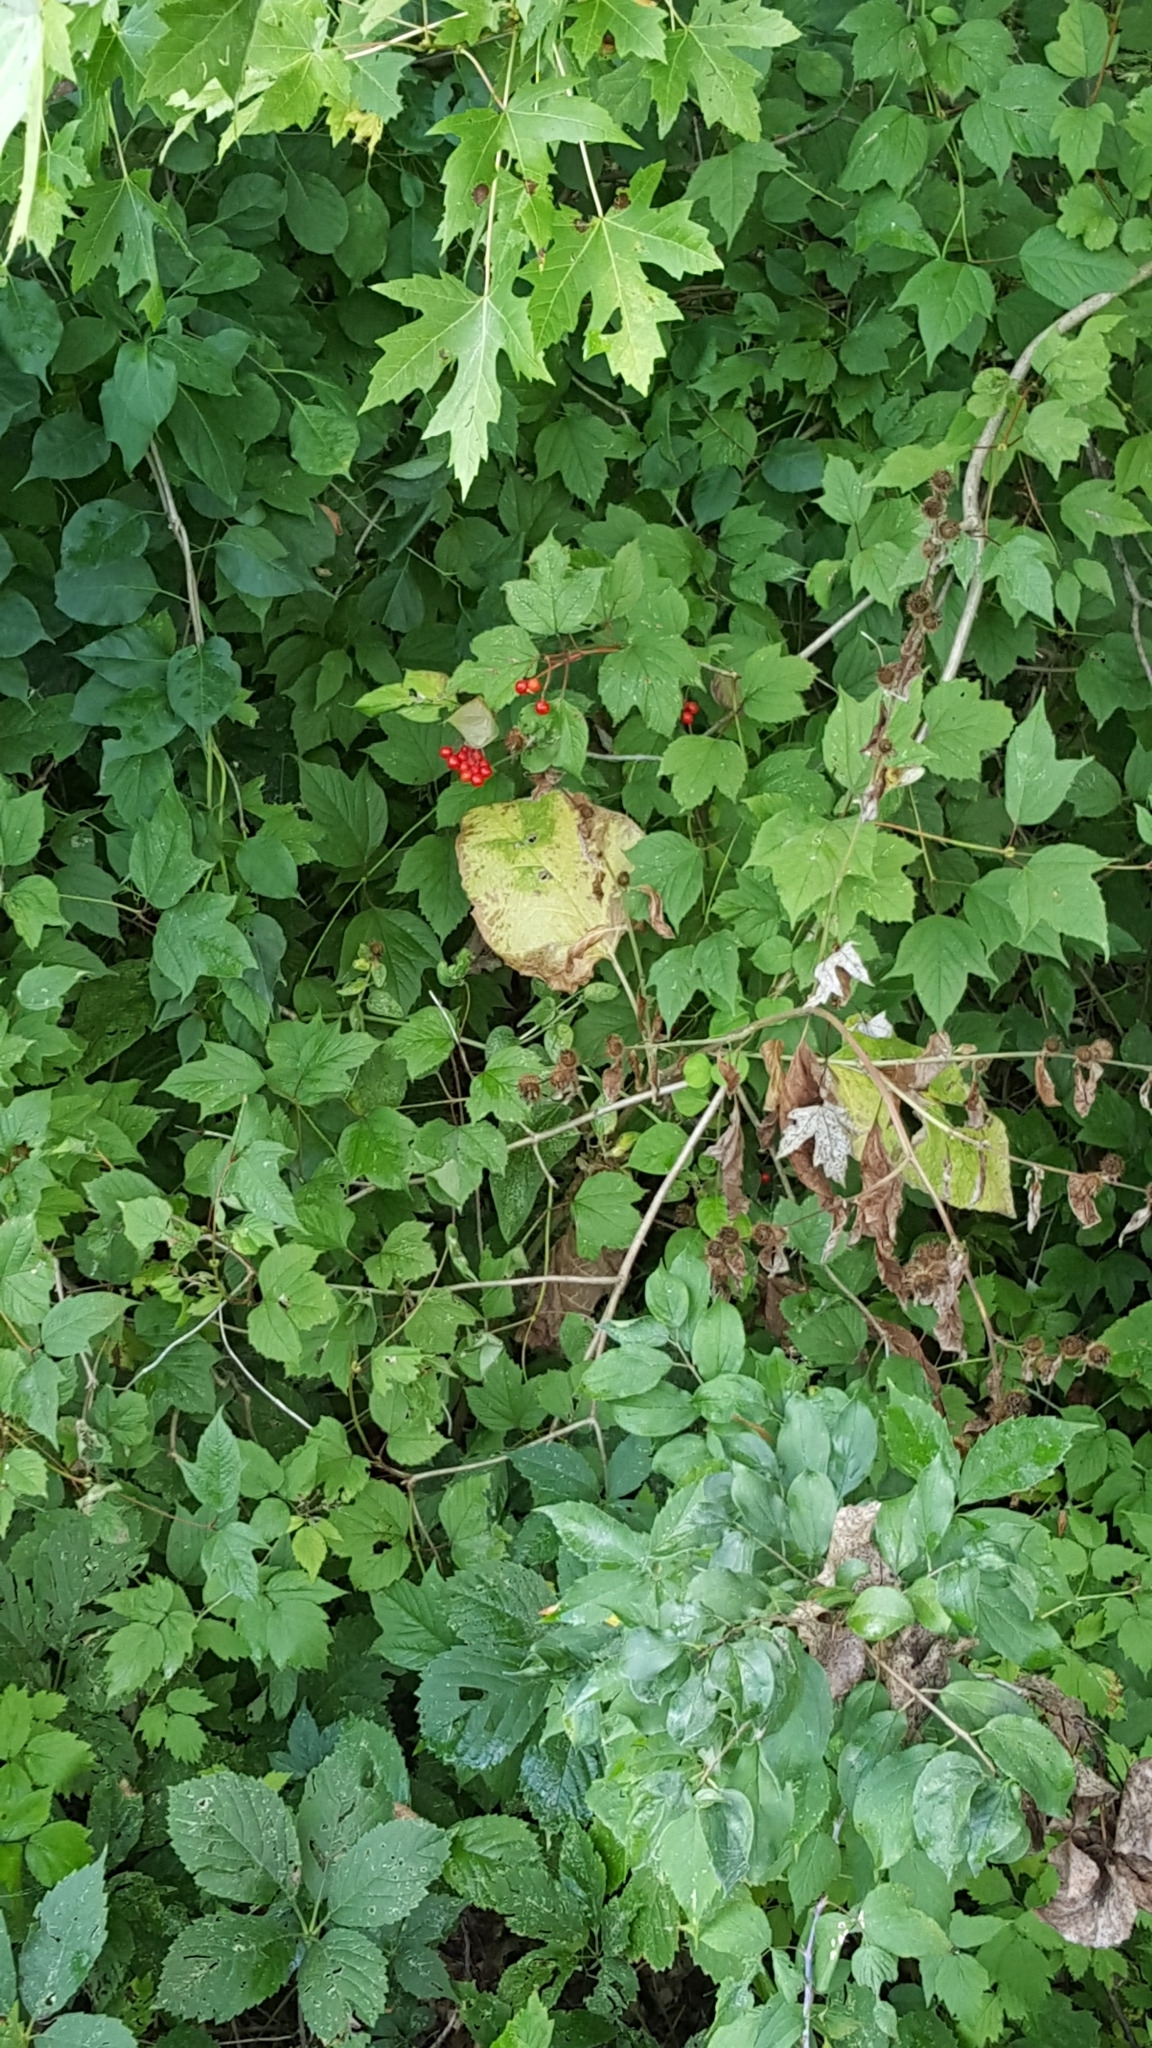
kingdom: Plantae
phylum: Tracheophyta
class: Magnoliopsida
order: Dipsacales
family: Viburnaceae
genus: Viburnum
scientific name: Viburnum opulus
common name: Guelder-rose
